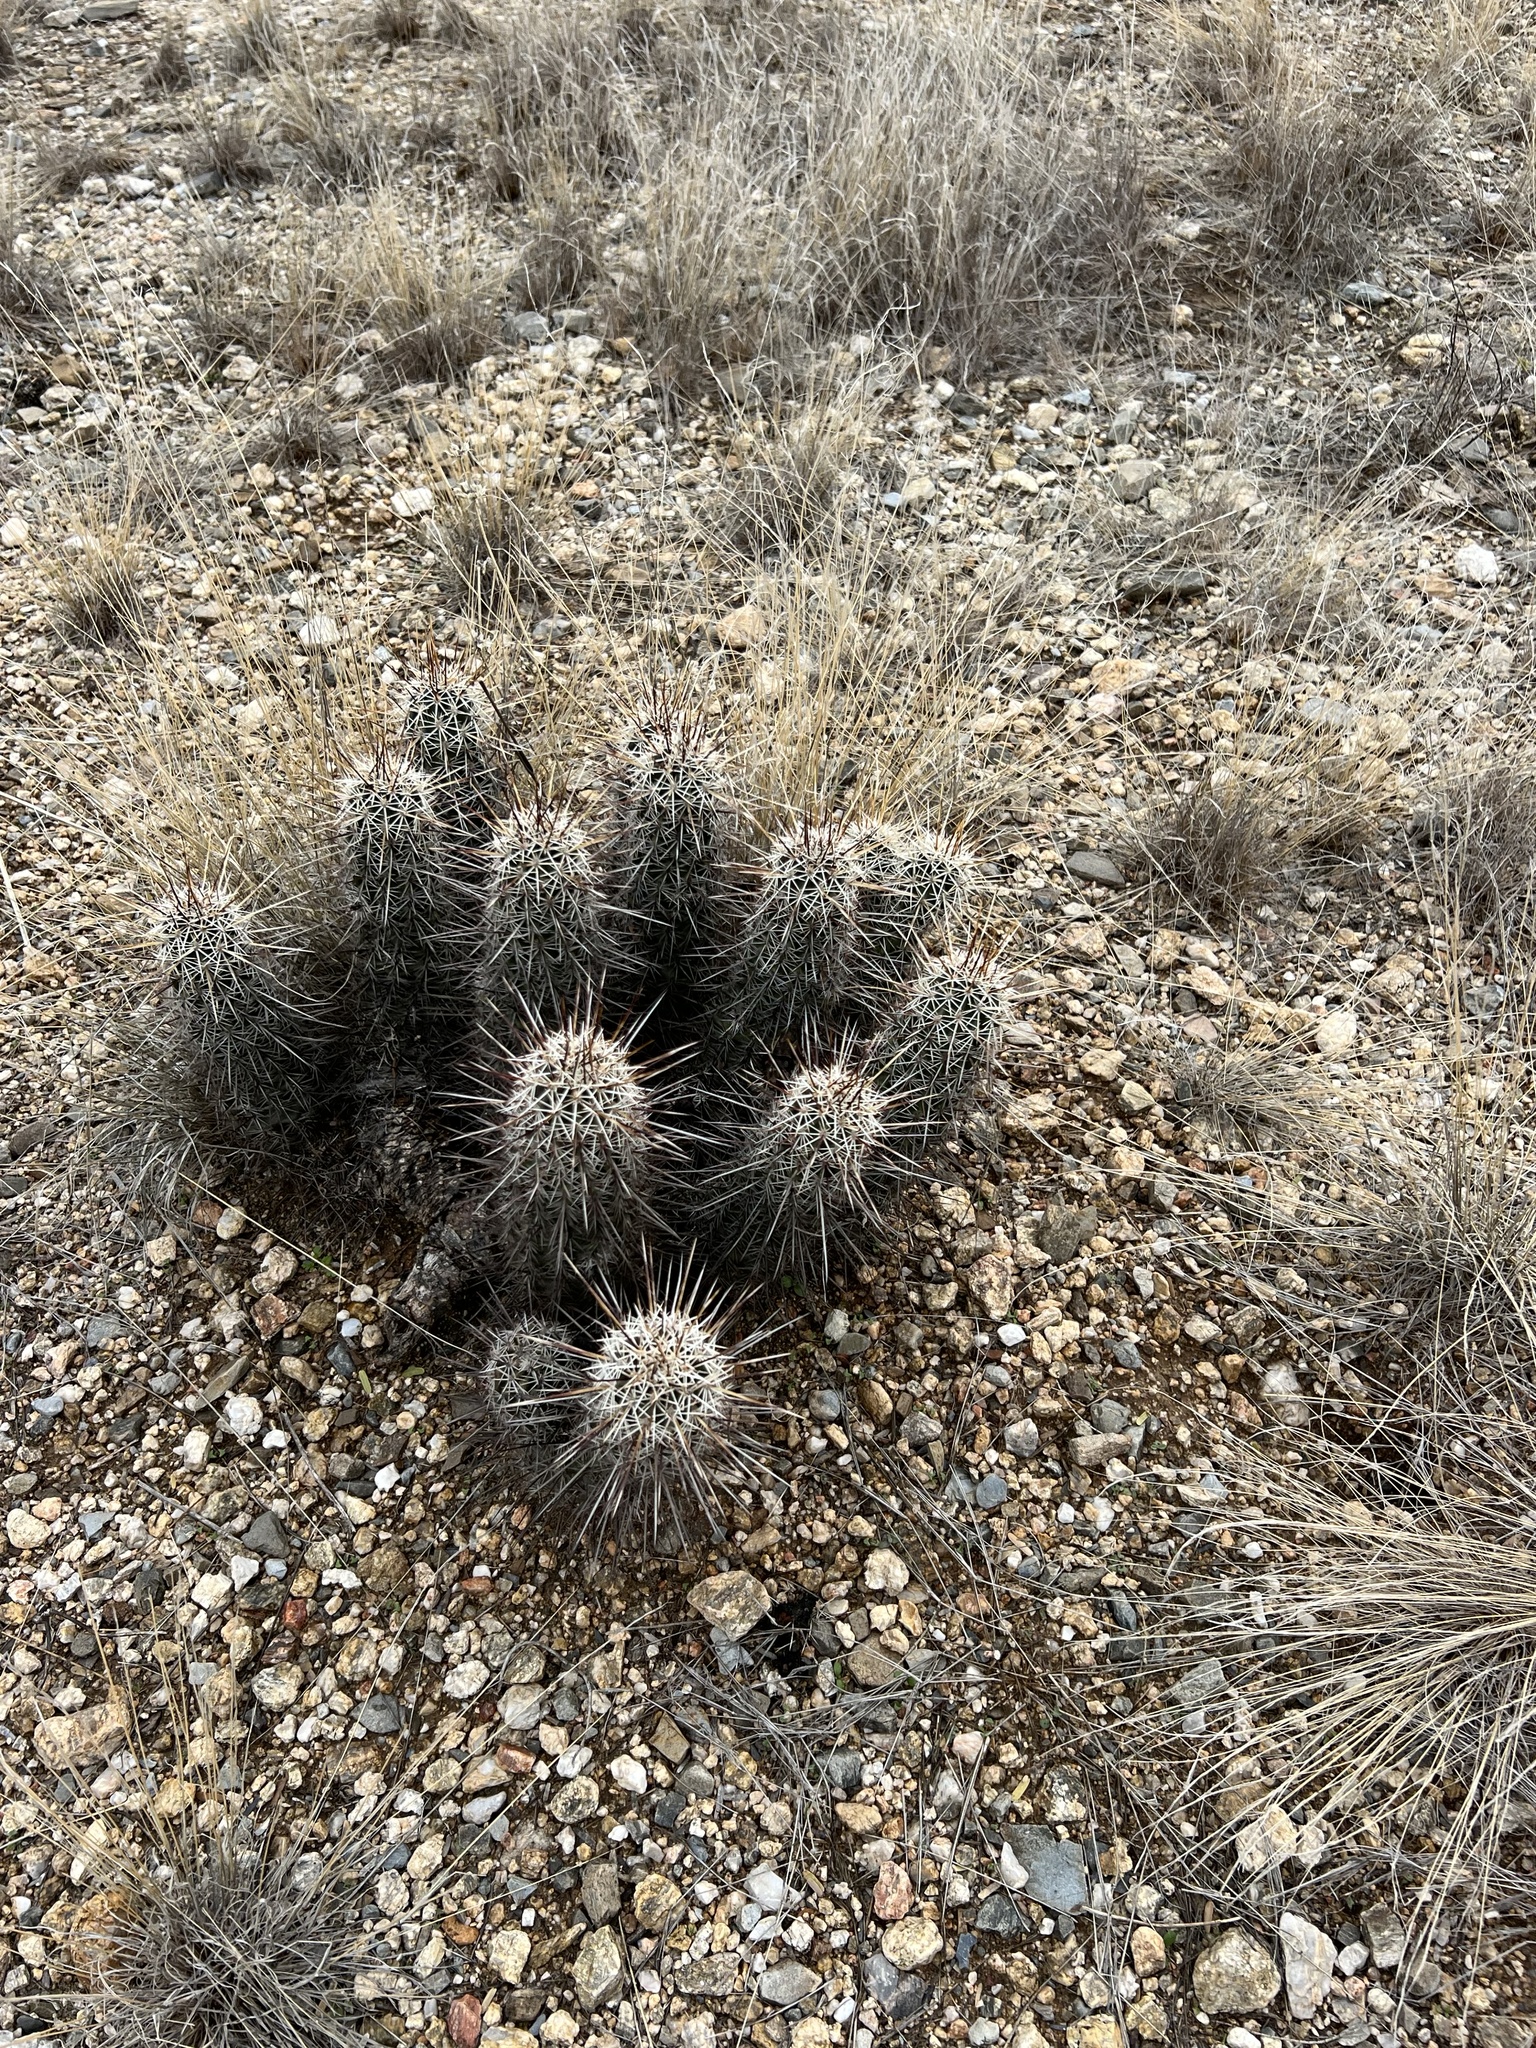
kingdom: Plantae
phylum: Tracheophyta
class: Magnoliopsida
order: Caryophyllales
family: Cactaceae
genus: Echinocereus
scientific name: Echinocereus fasciculatus
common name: Bundle hedgehog
